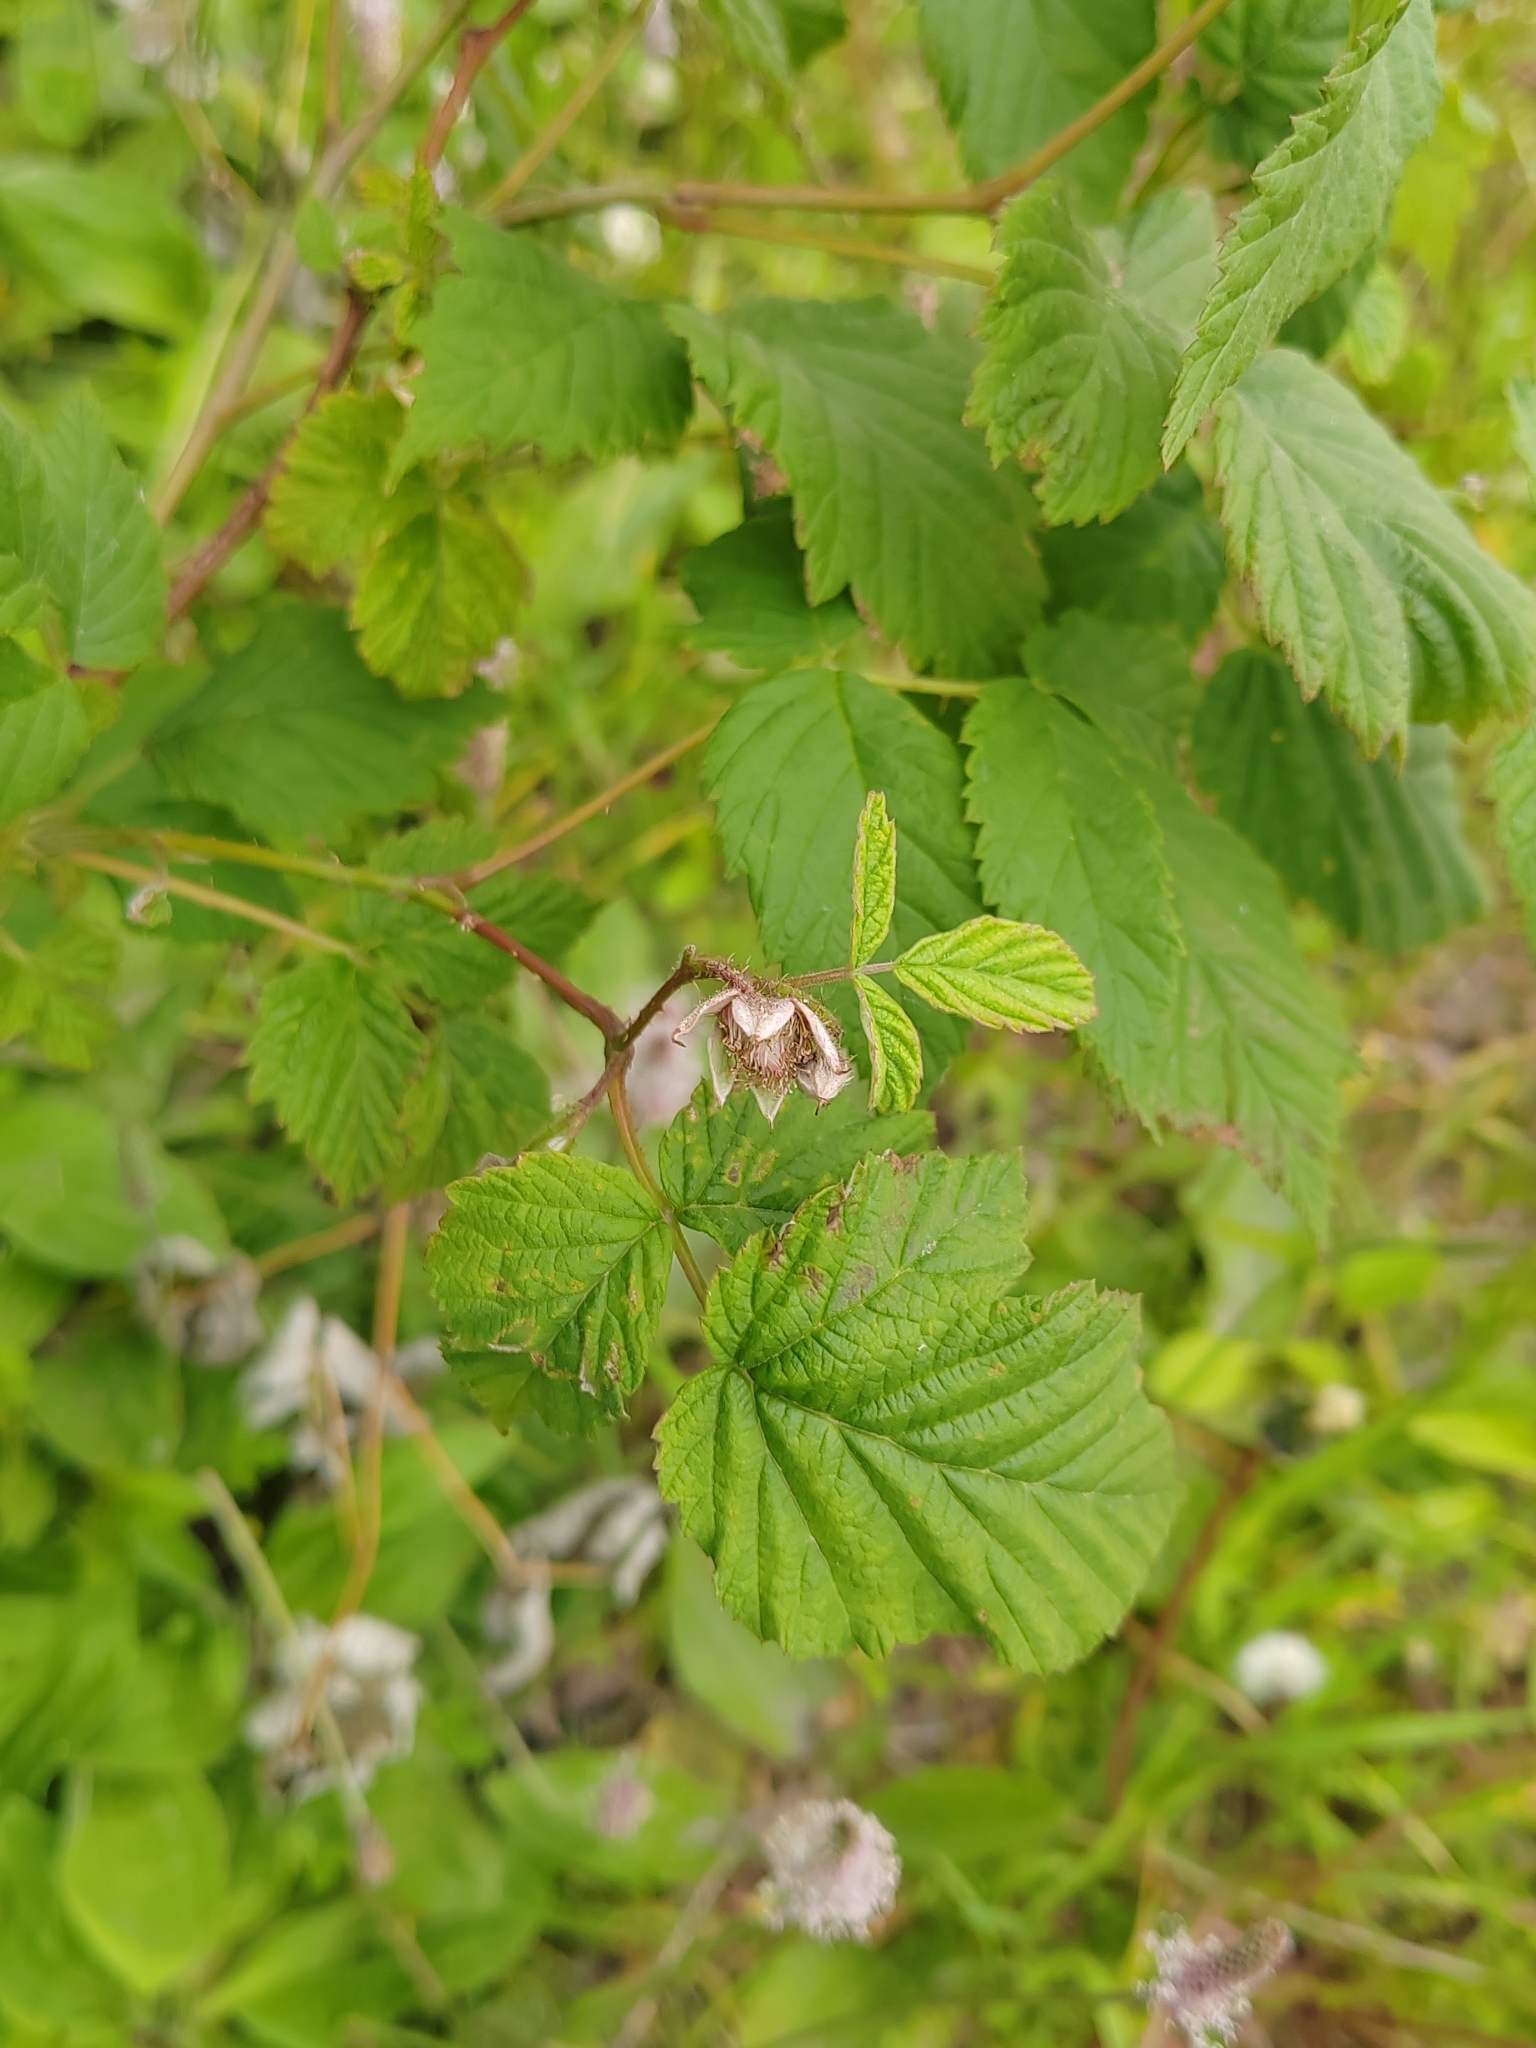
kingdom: Plantae
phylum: Tracheophyta
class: Magnoliopsida
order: Rosales
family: Rosaceae
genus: Rubus
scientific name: Rubus idaeus
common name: Raspberry
